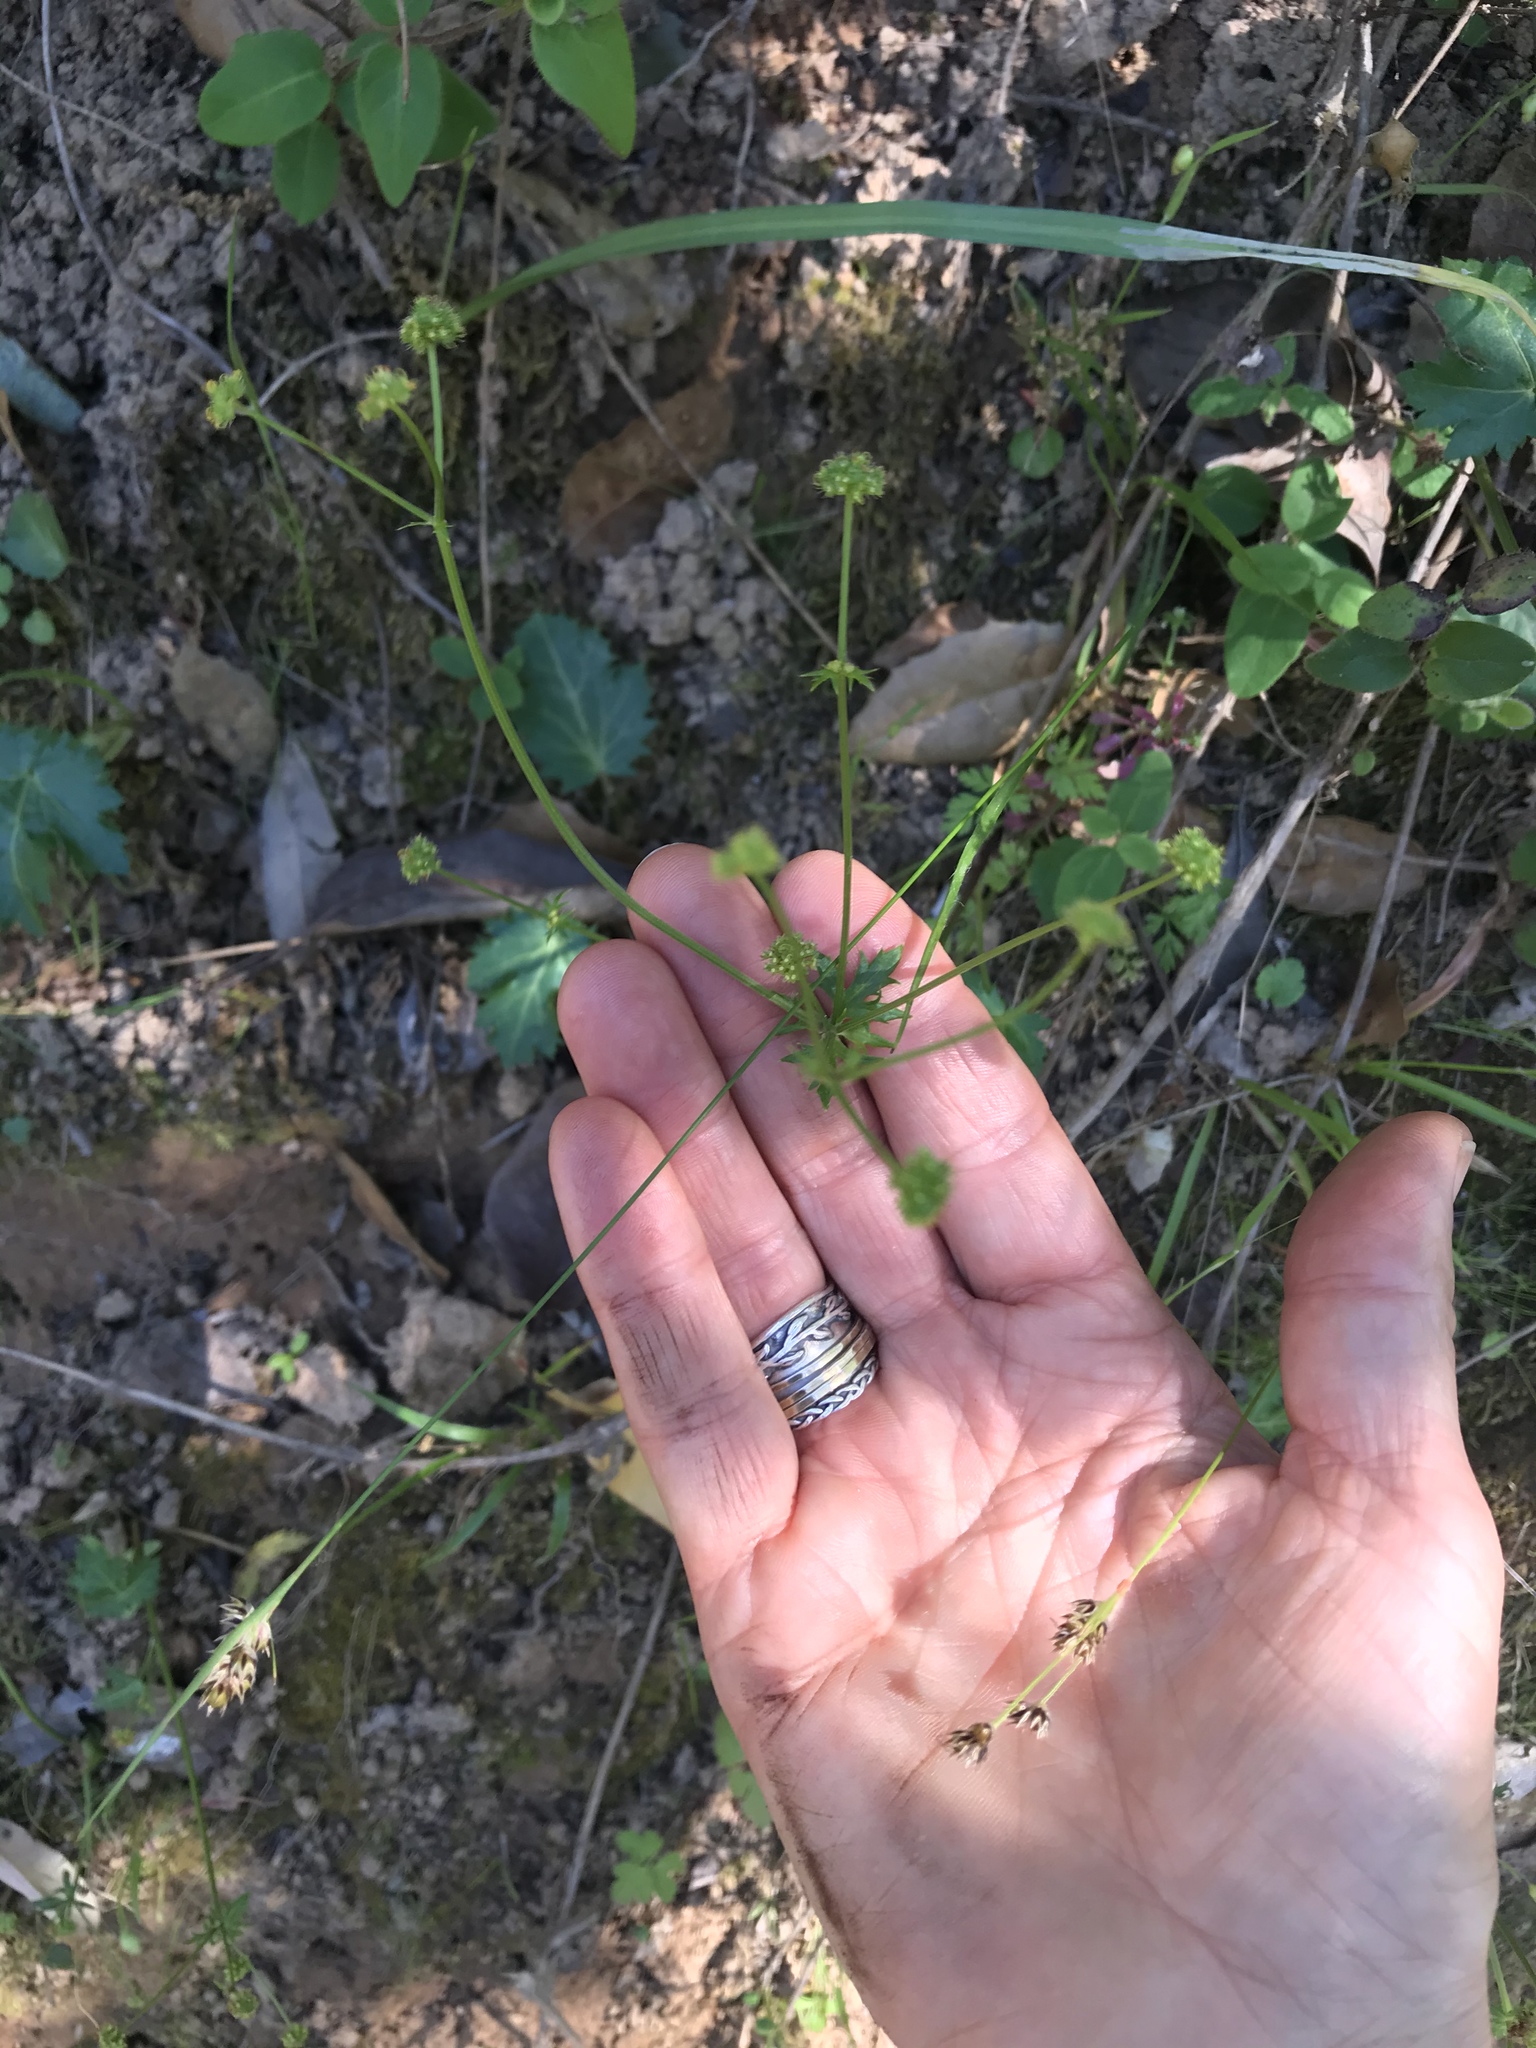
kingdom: Plantae
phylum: Tracheophyta
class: Magnoliopsida
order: Apiales
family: Apiaceae
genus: Sanicula
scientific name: Sanicula crassicaulis
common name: Western snakeroot
